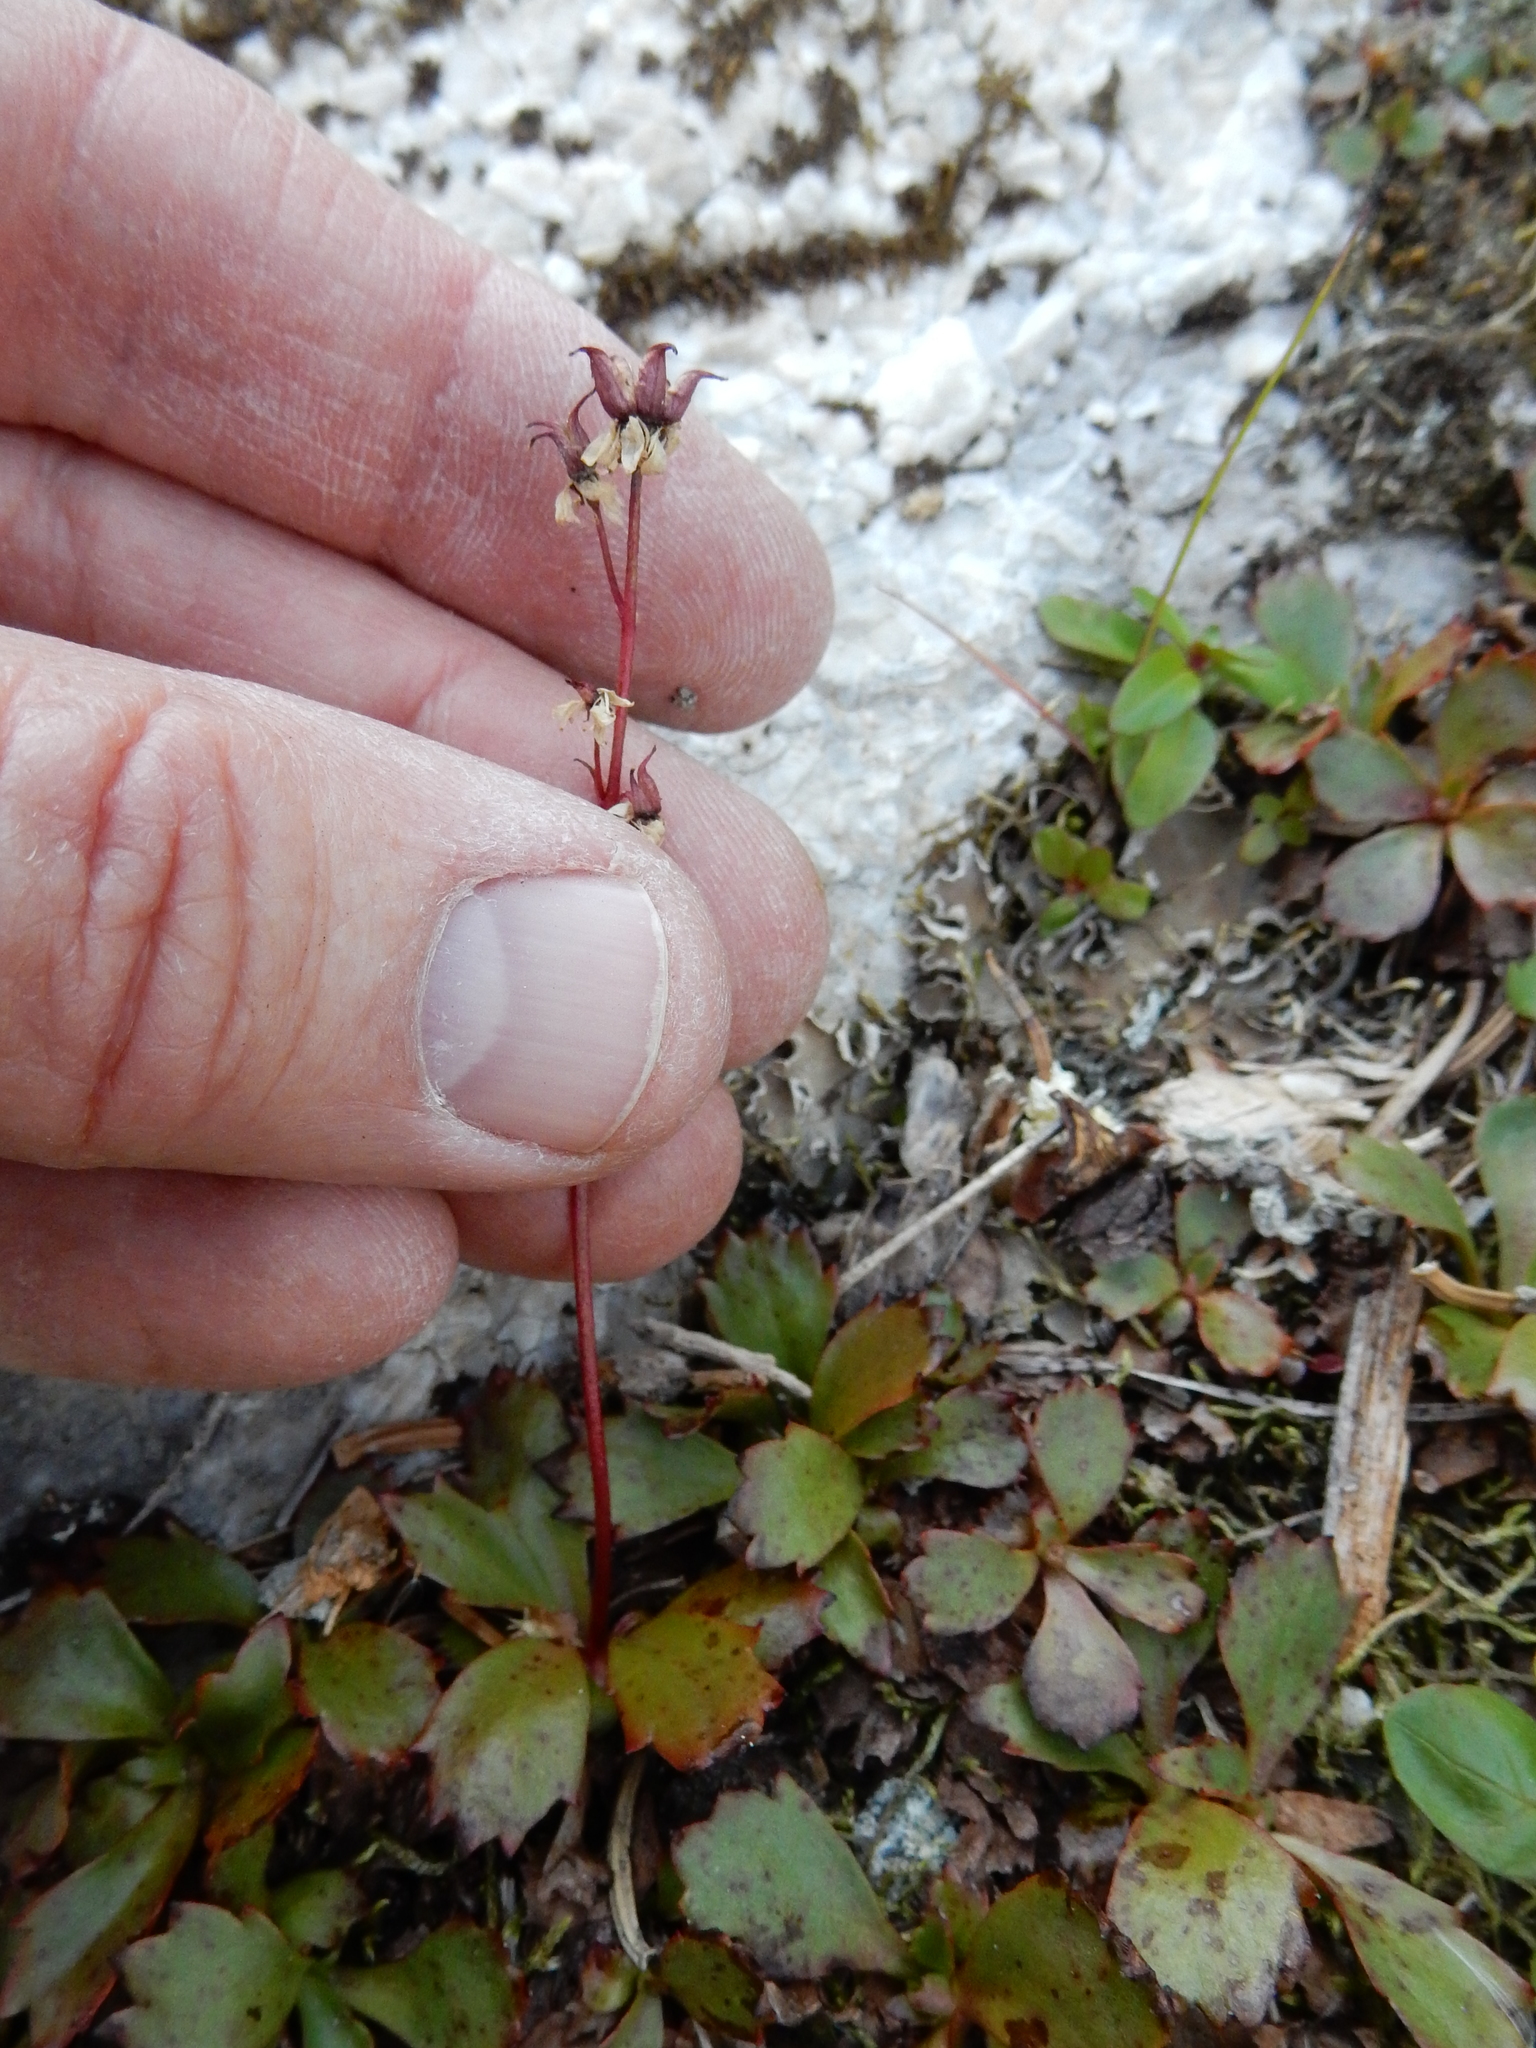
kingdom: Plantae
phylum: Tracheophyta
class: Magnoliopsida
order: Saxifragales
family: Saxifragaceae
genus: Micranthes
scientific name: Micranthes lyallii
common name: Lyall's saxifrage
